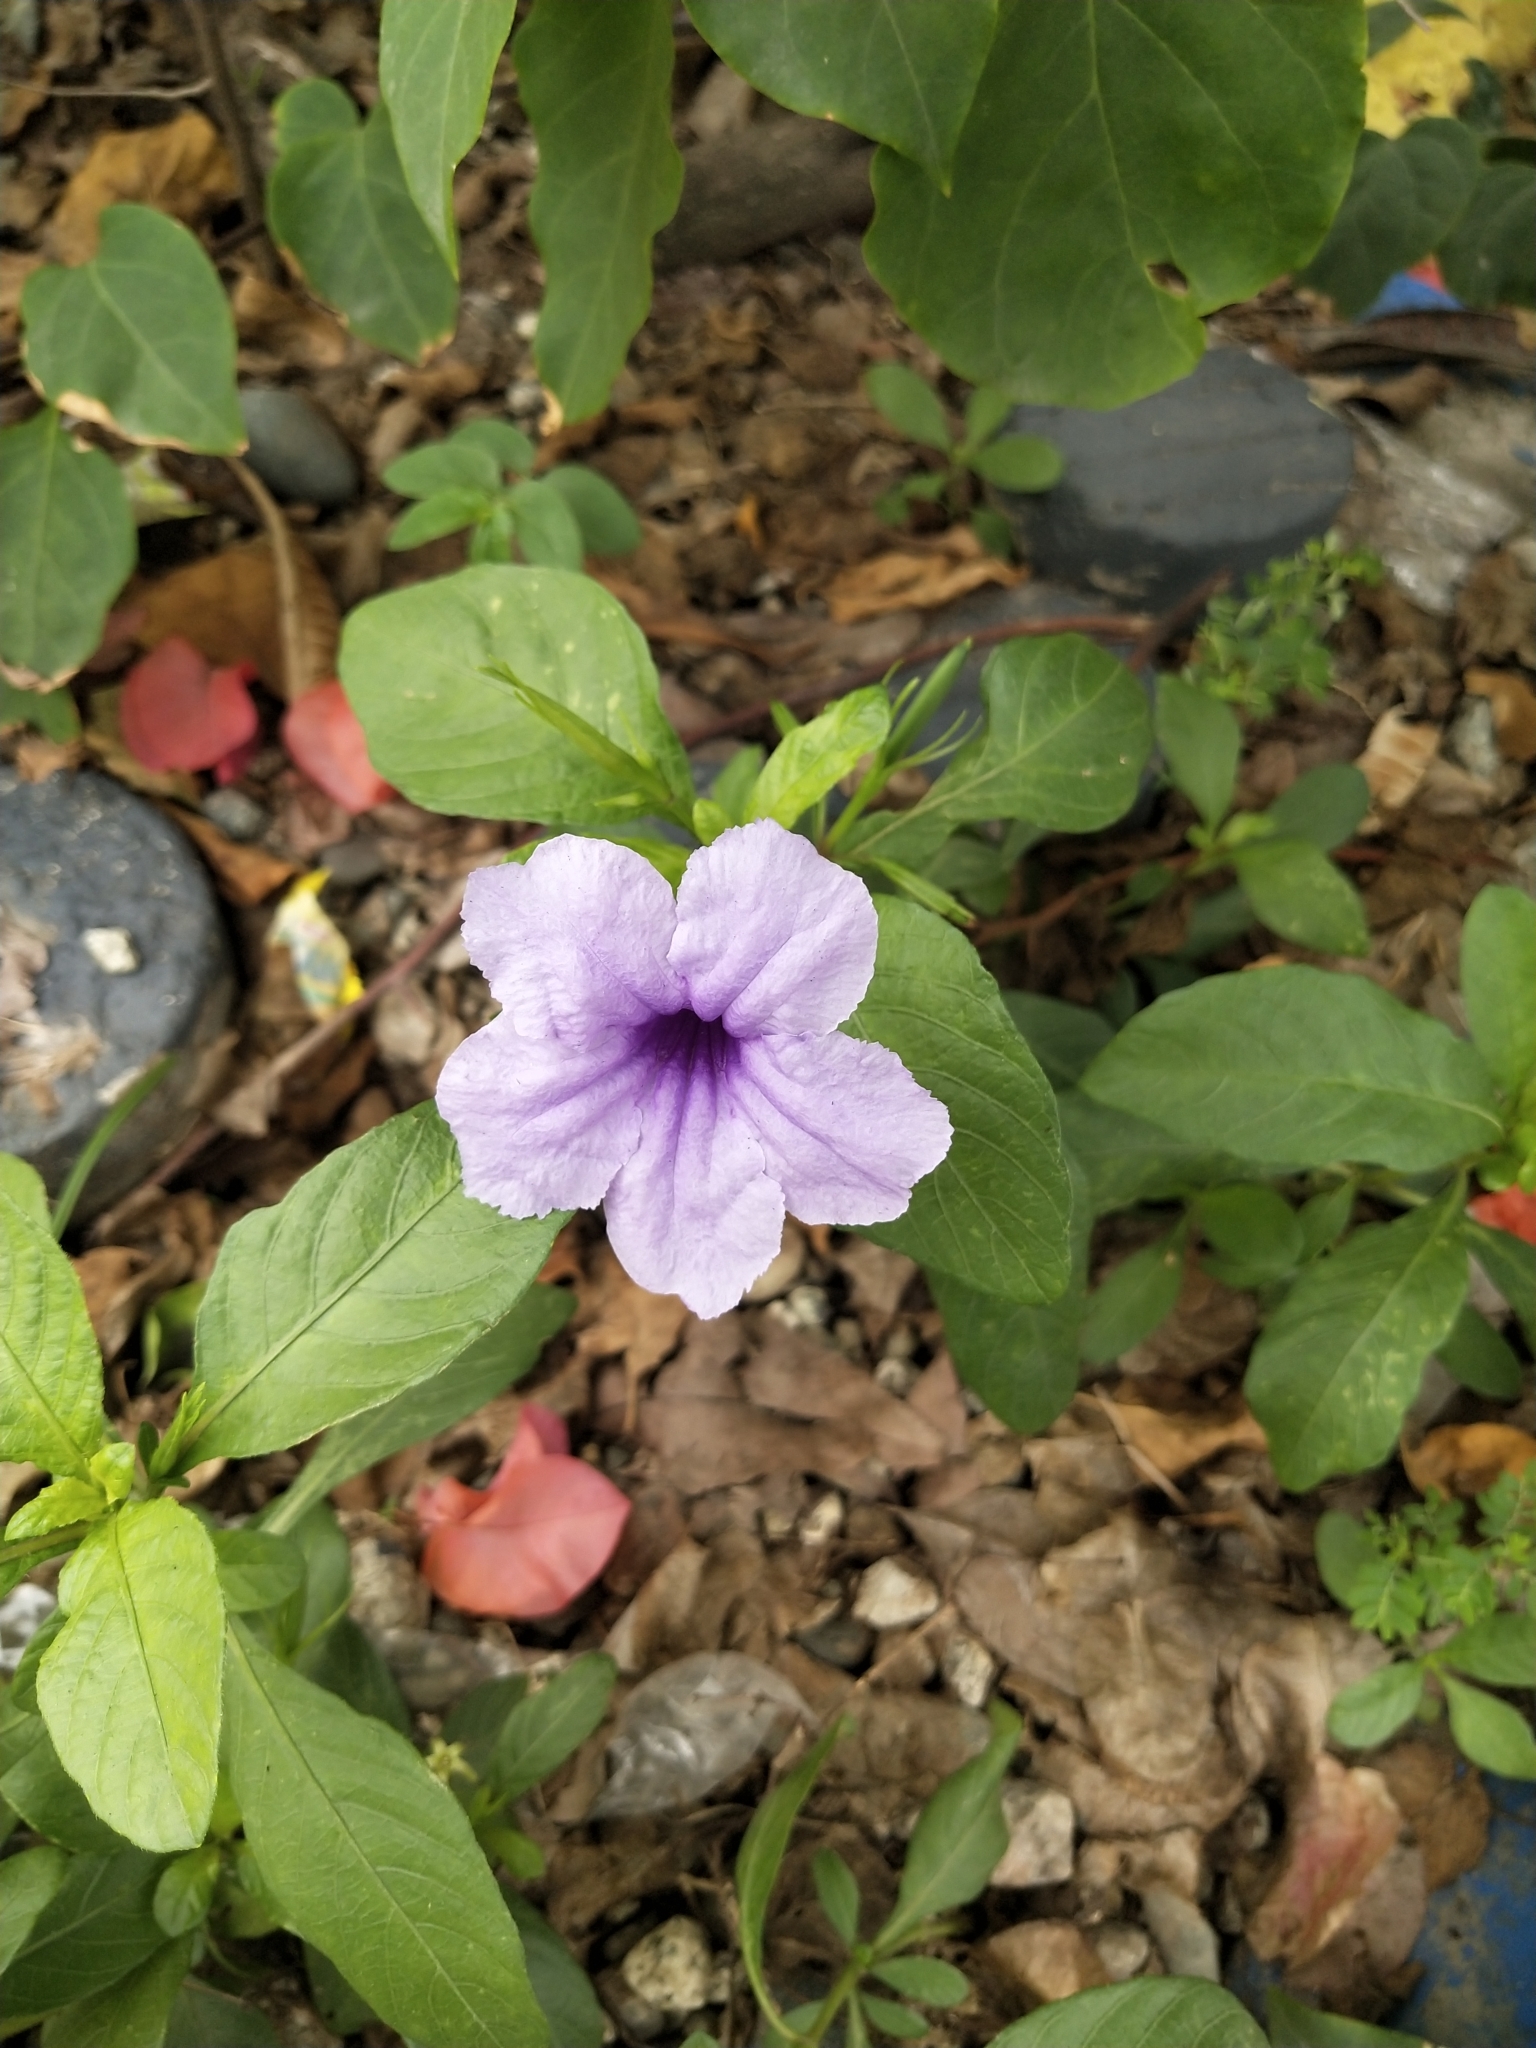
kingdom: Plantae
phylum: Tracheophyta
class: Magnoliopsida
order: Lamiales
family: Acanthaceae
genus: Ruellia
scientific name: Ruellia tuberosa
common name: Devil's bit
